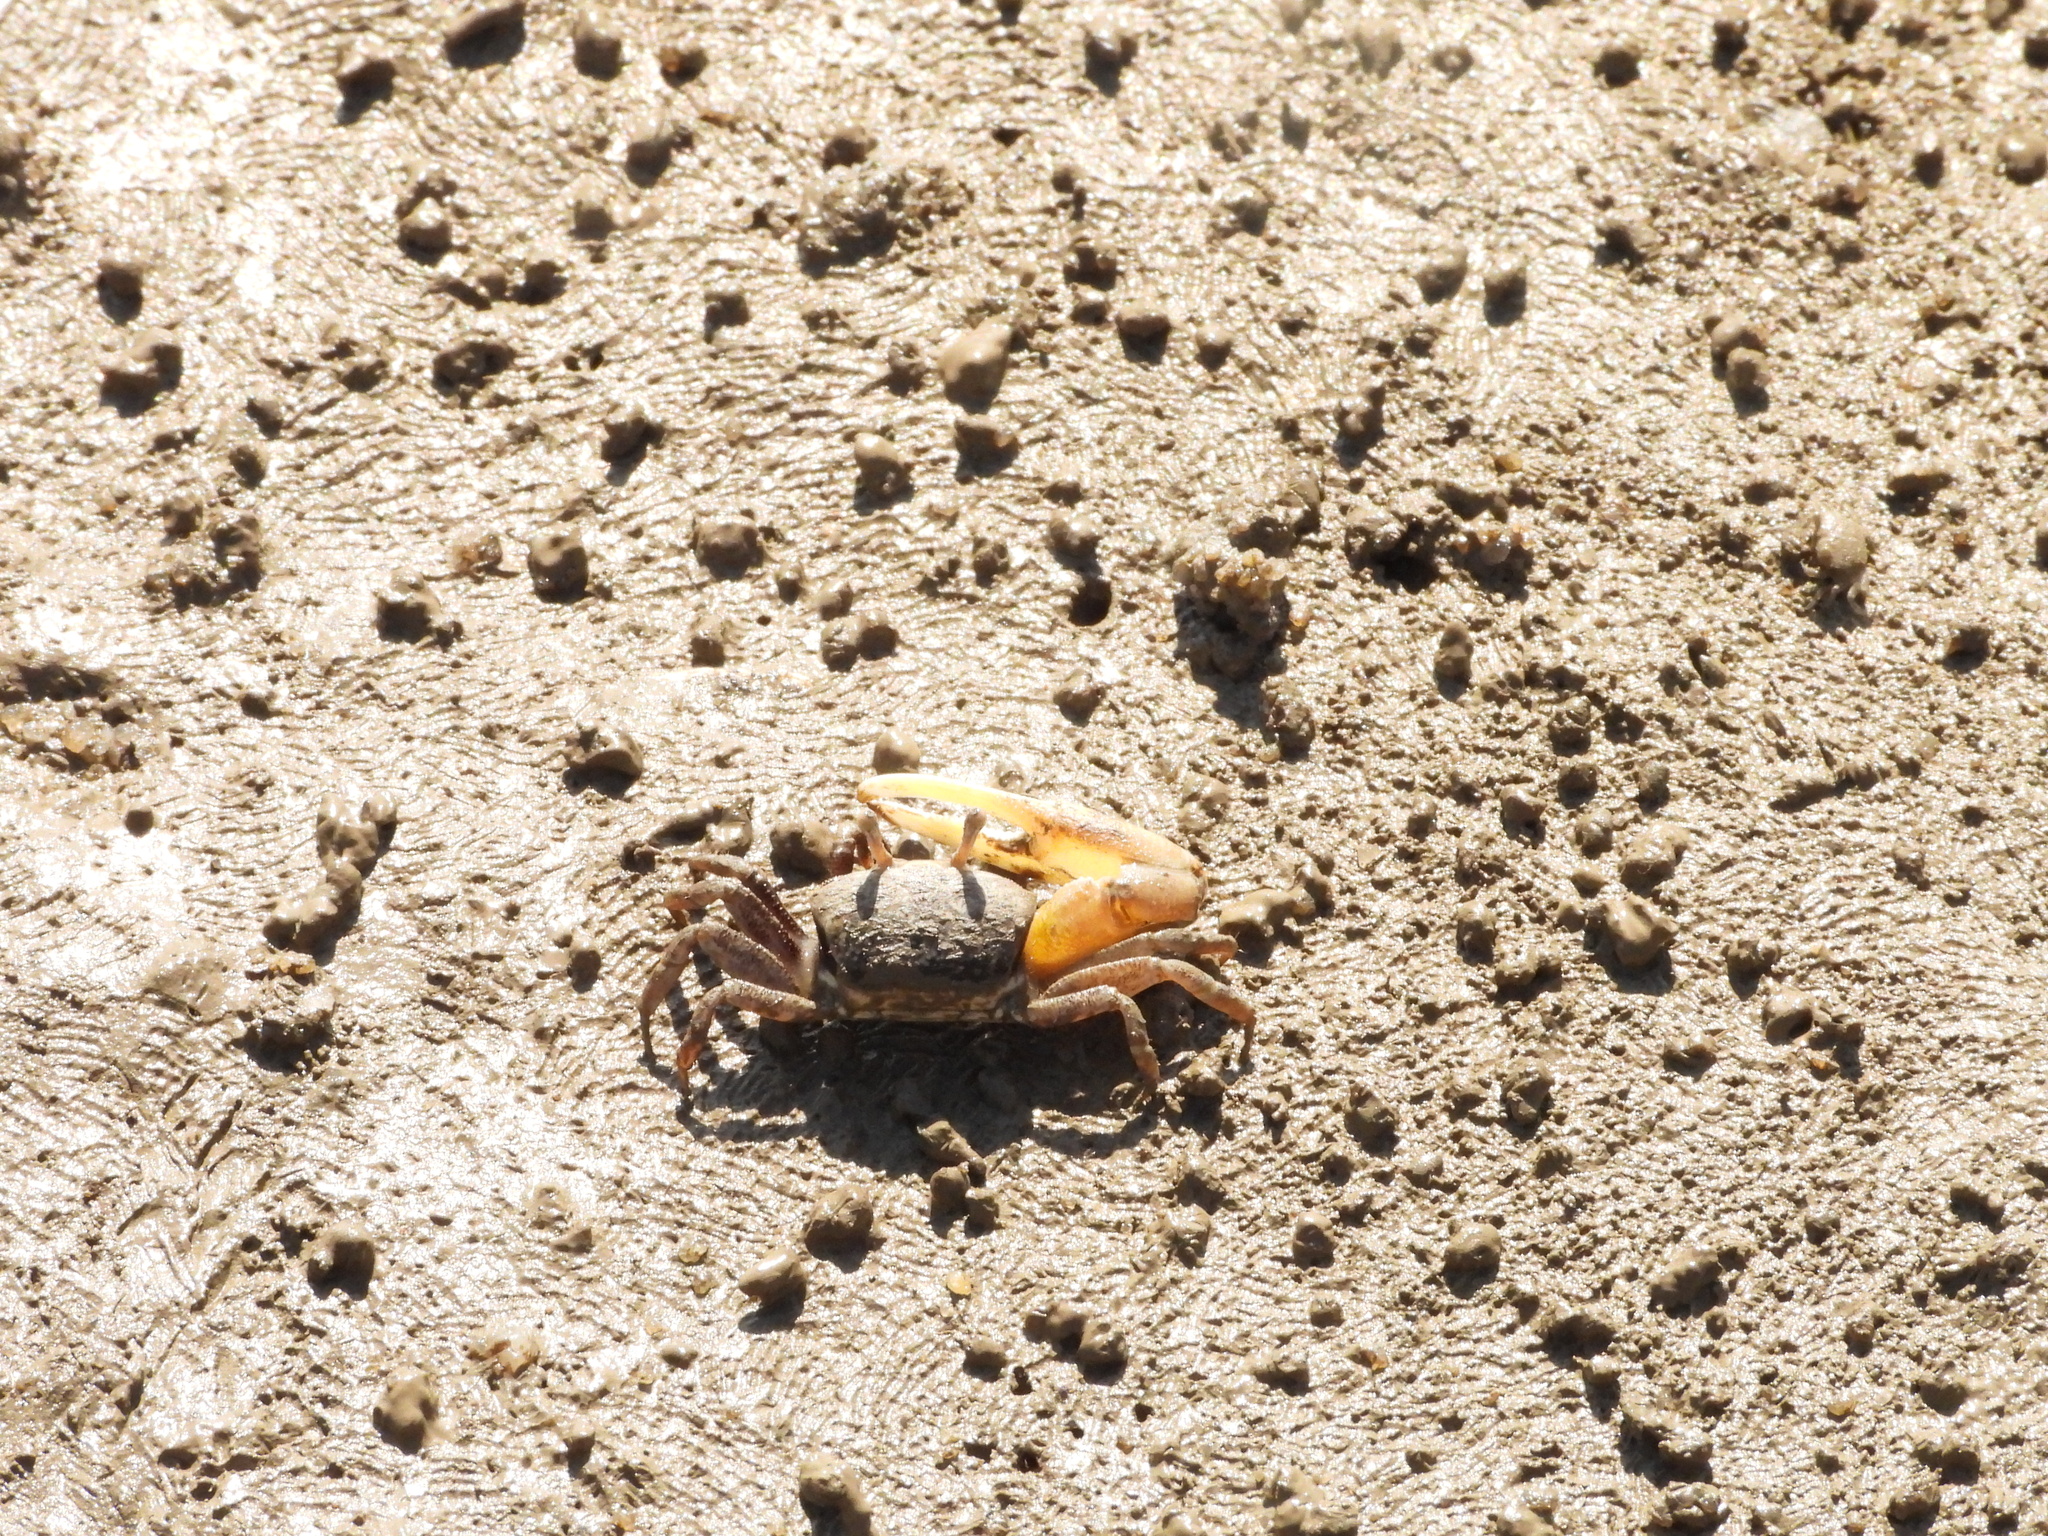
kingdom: Animalia
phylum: Arthropoda
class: Malacostraca
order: Decapoda
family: Ocypodidae
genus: Austruca
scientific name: Austruca lactea
